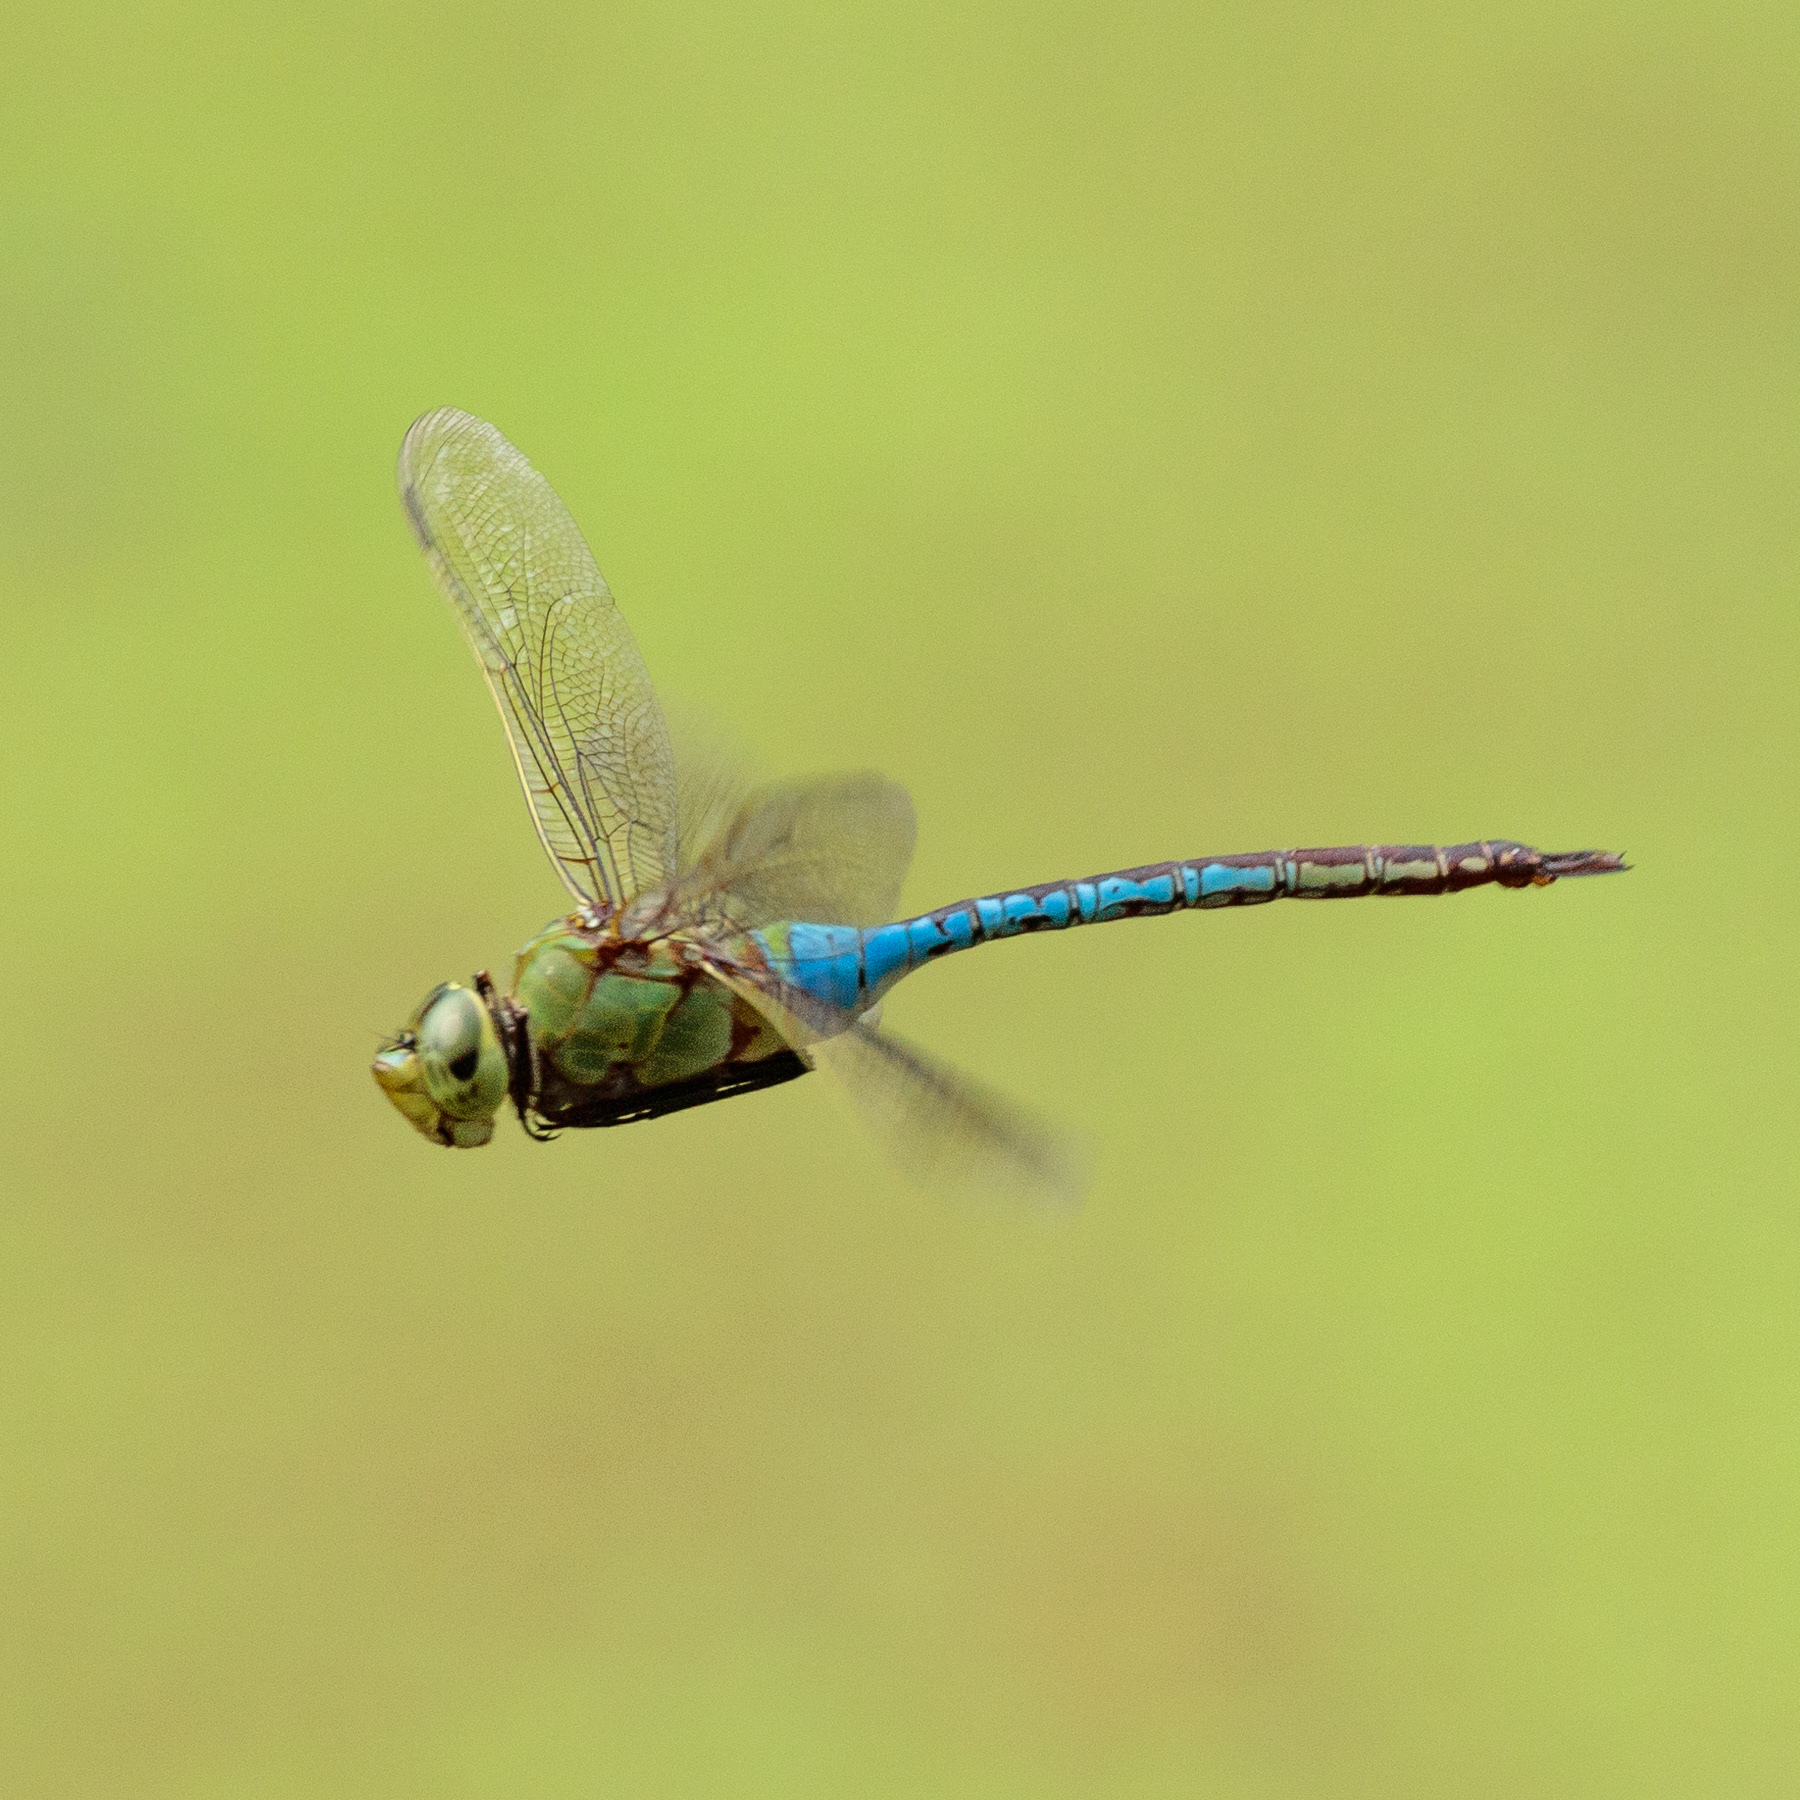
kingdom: Animalia
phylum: Arthropoda
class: Insecta
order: Odonata
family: Aeshnidae
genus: Anax
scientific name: Anax junius
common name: Common green darner
